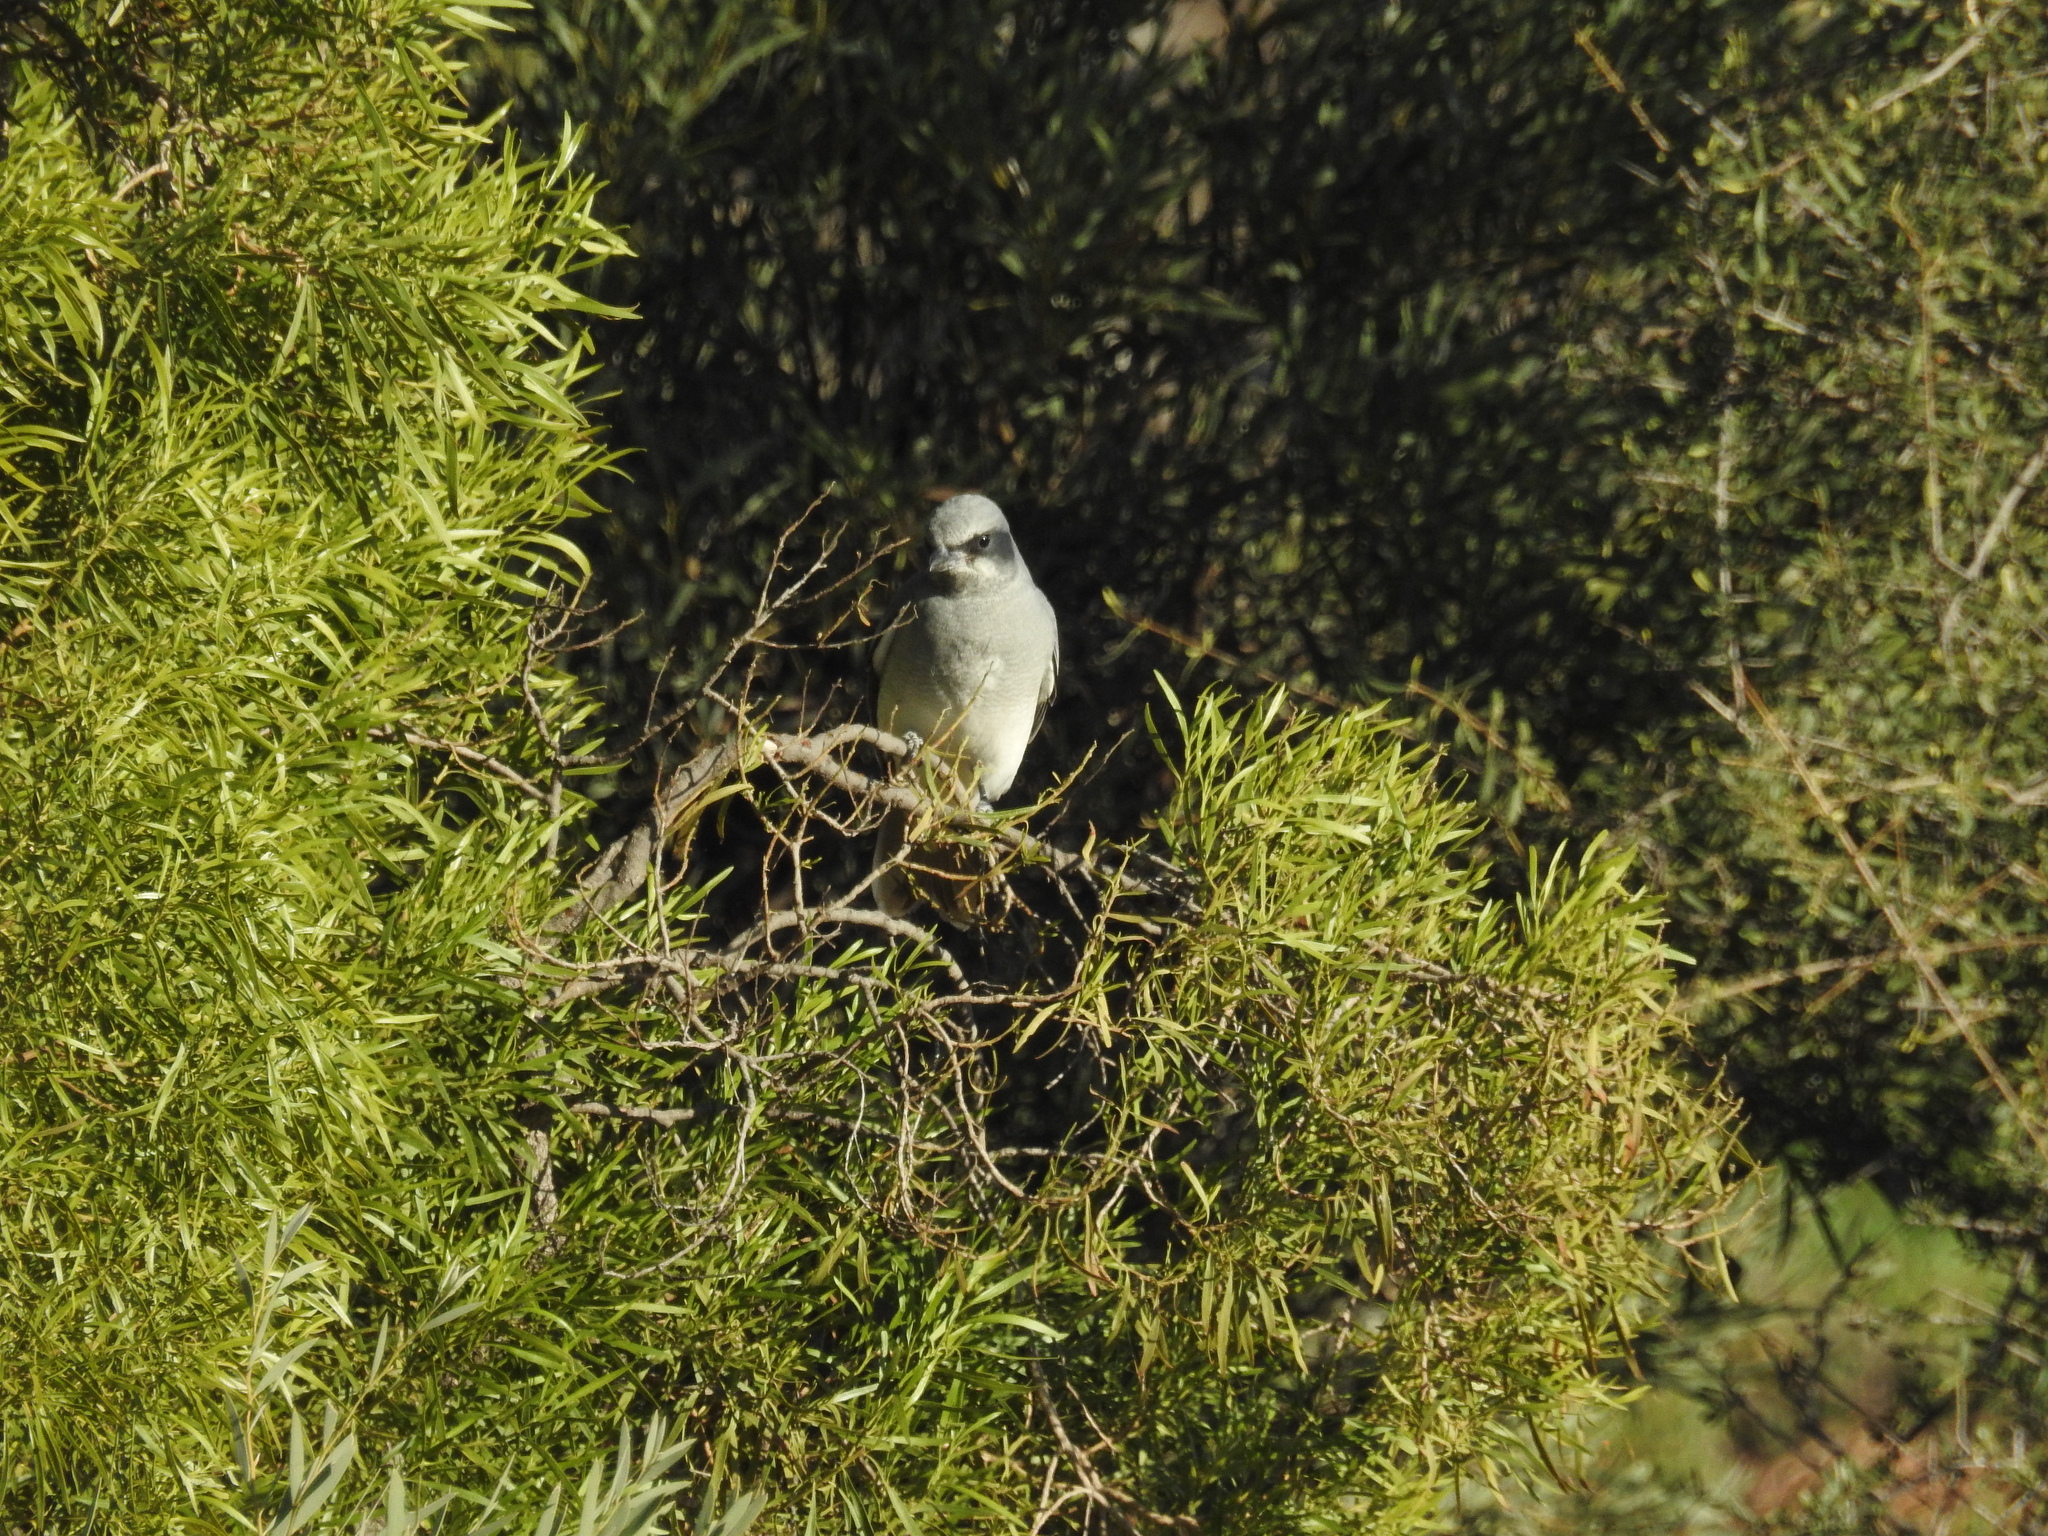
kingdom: Animalia
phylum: Chordata
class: Aves
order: Passeriformes
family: Campephagidae
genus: Coracina
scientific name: Coracina novaehollandiae
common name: Black-faced cuckooshrike
